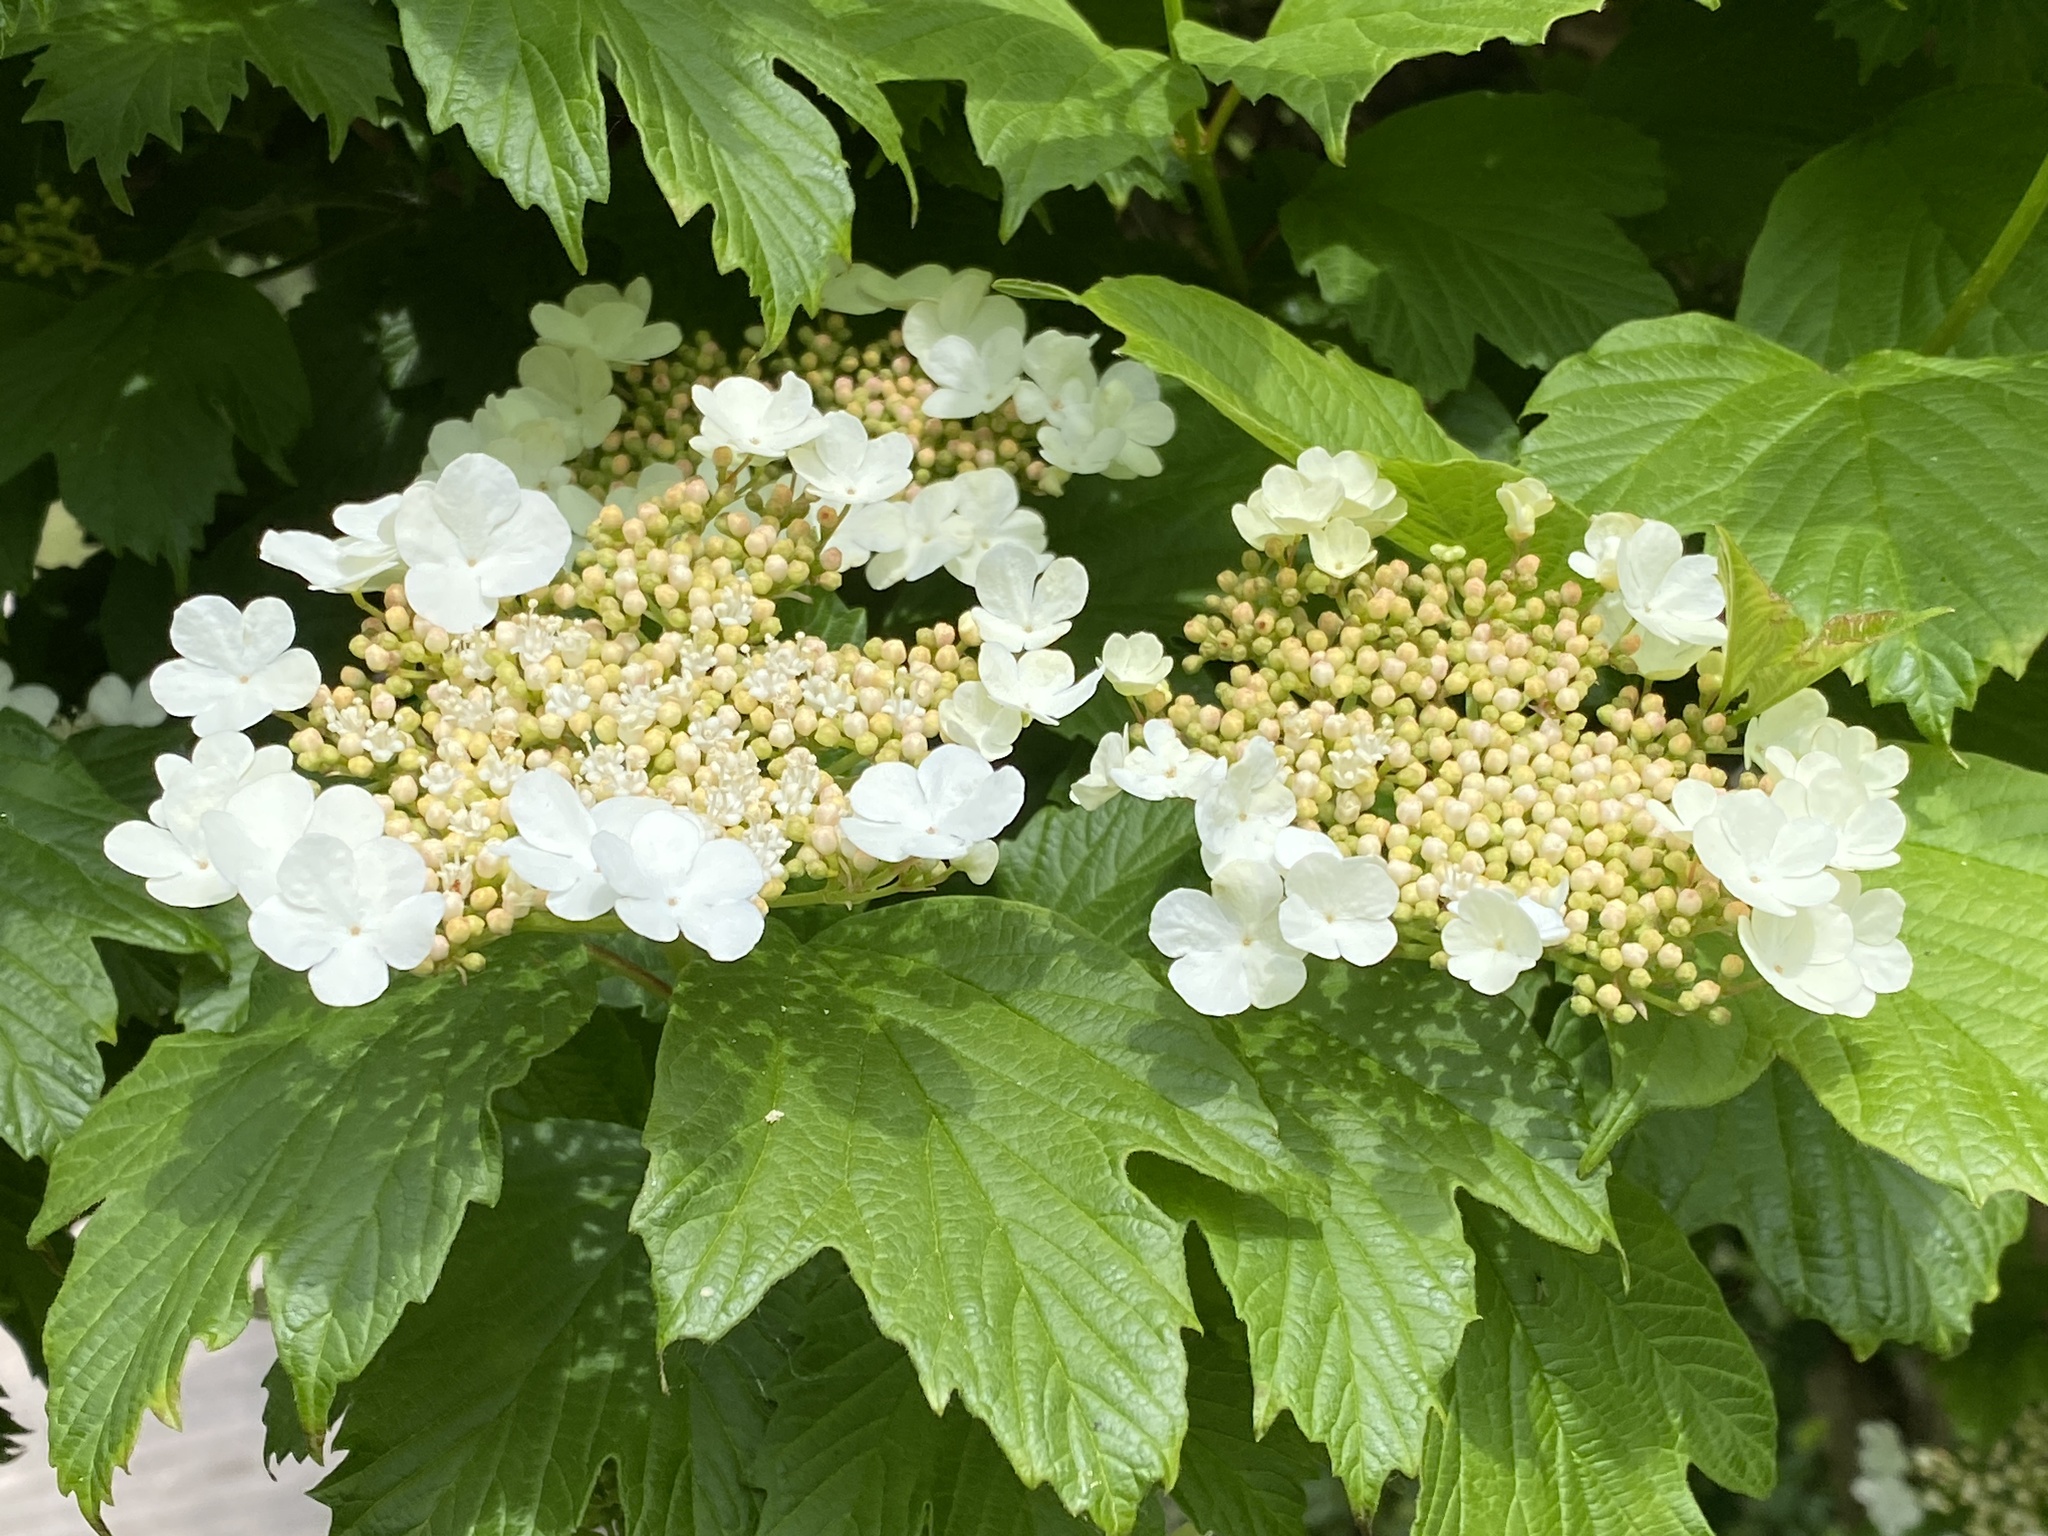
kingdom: Plantae
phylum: Tracheophyta
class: Magnoliopsida
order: Dipsacales
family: Viburnaceae
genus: Viburnum
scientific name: Viburnum opulus
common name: Guelder-rose
